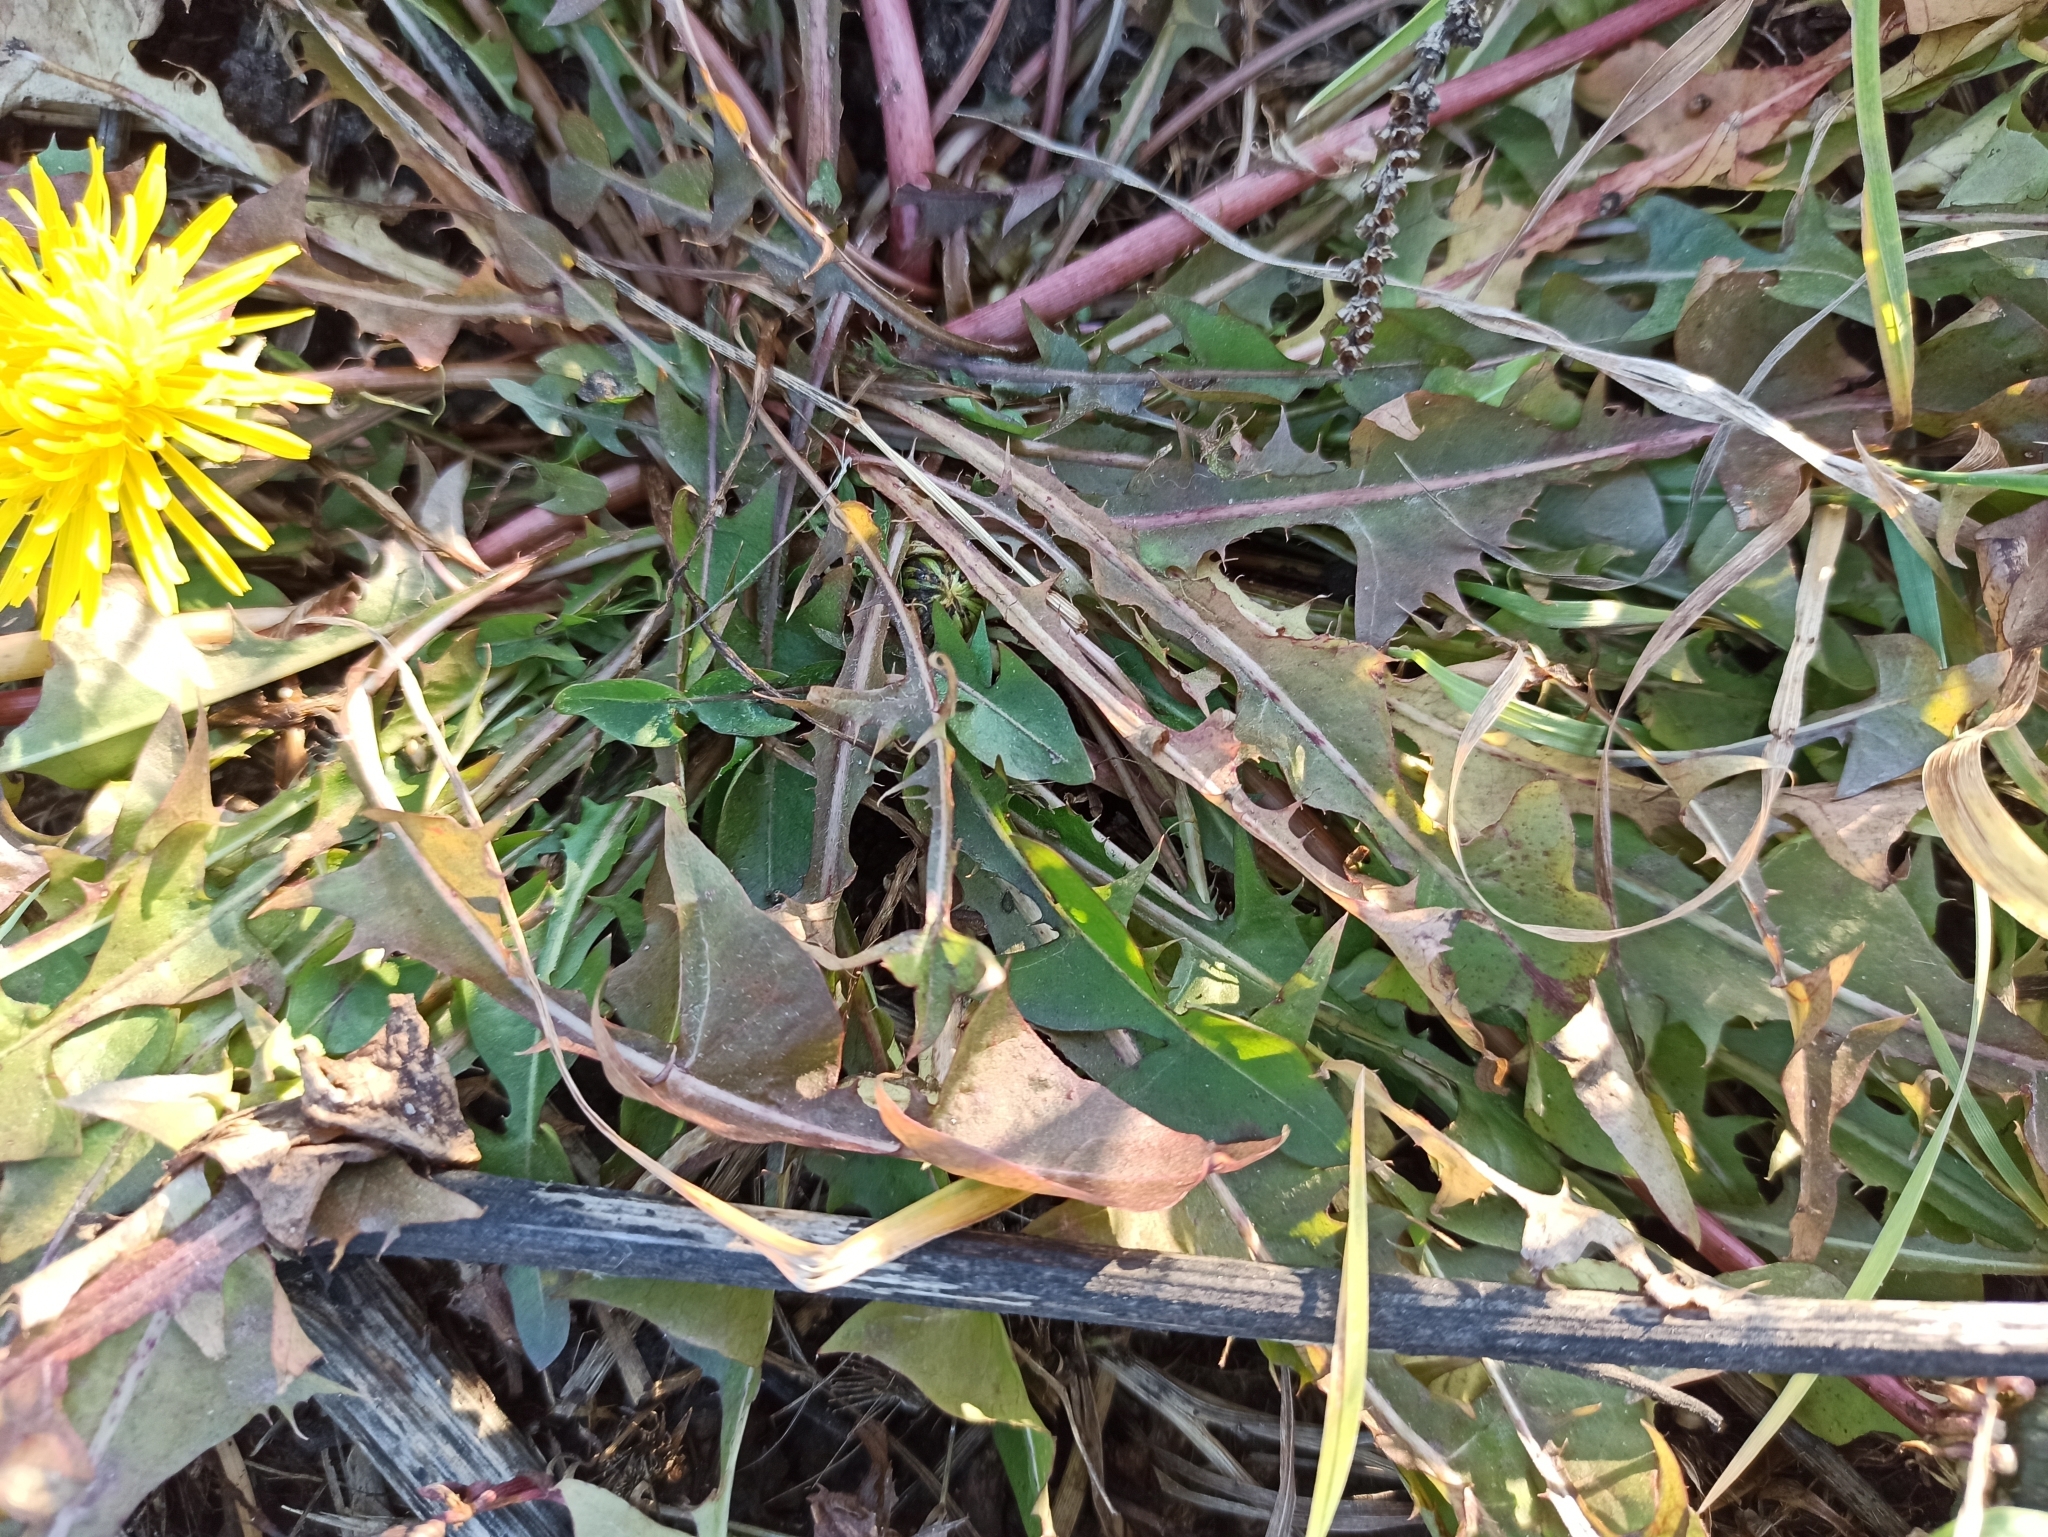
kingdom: Plantae
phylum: Tracheophyta
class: Magnoliopsida
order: Asterales
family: Asteraceae
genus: Taraxacum
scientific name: Taraxacum officinale
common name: Common dandelion
